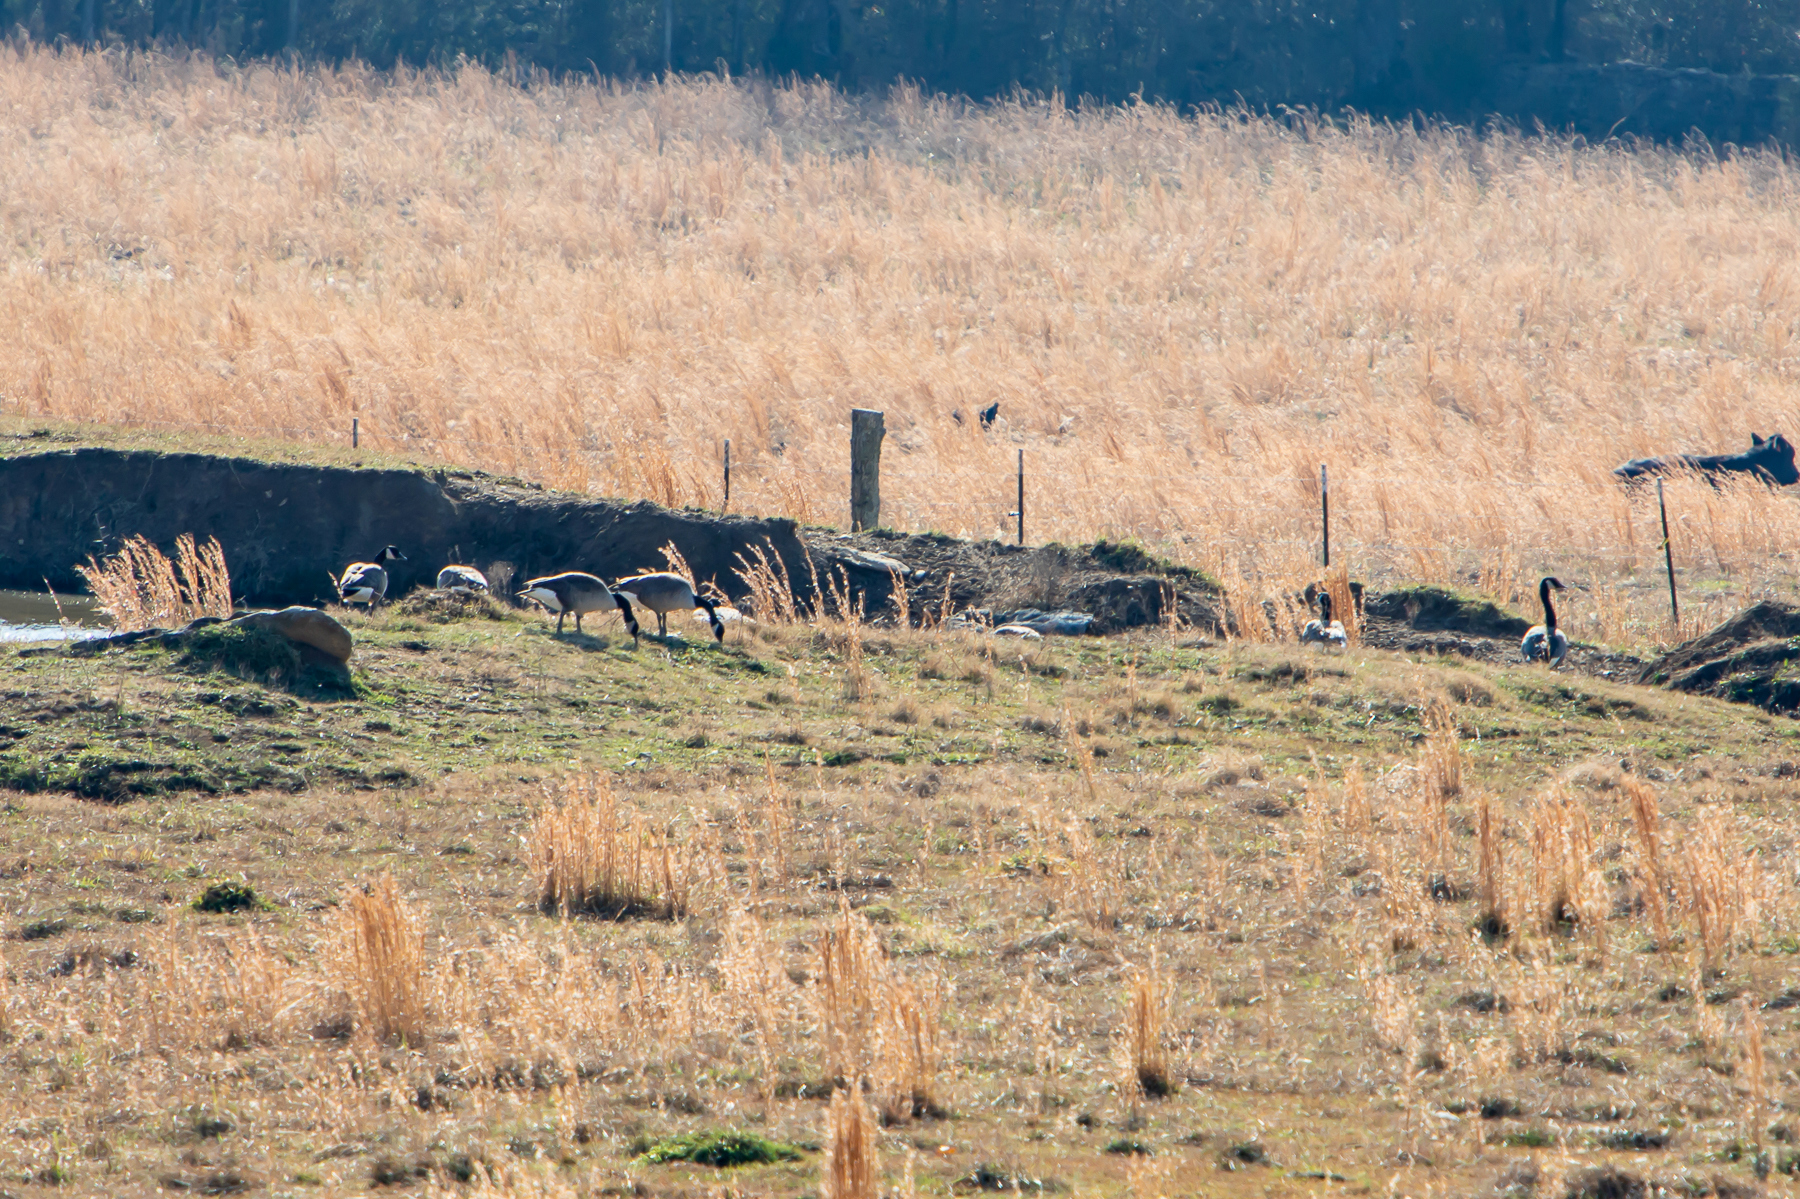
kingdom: Animalia
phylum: Chordata
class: Aves
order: Anseriformes
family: Anatidae
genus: Branta
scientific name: Branta canadensis
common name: Canada goose
